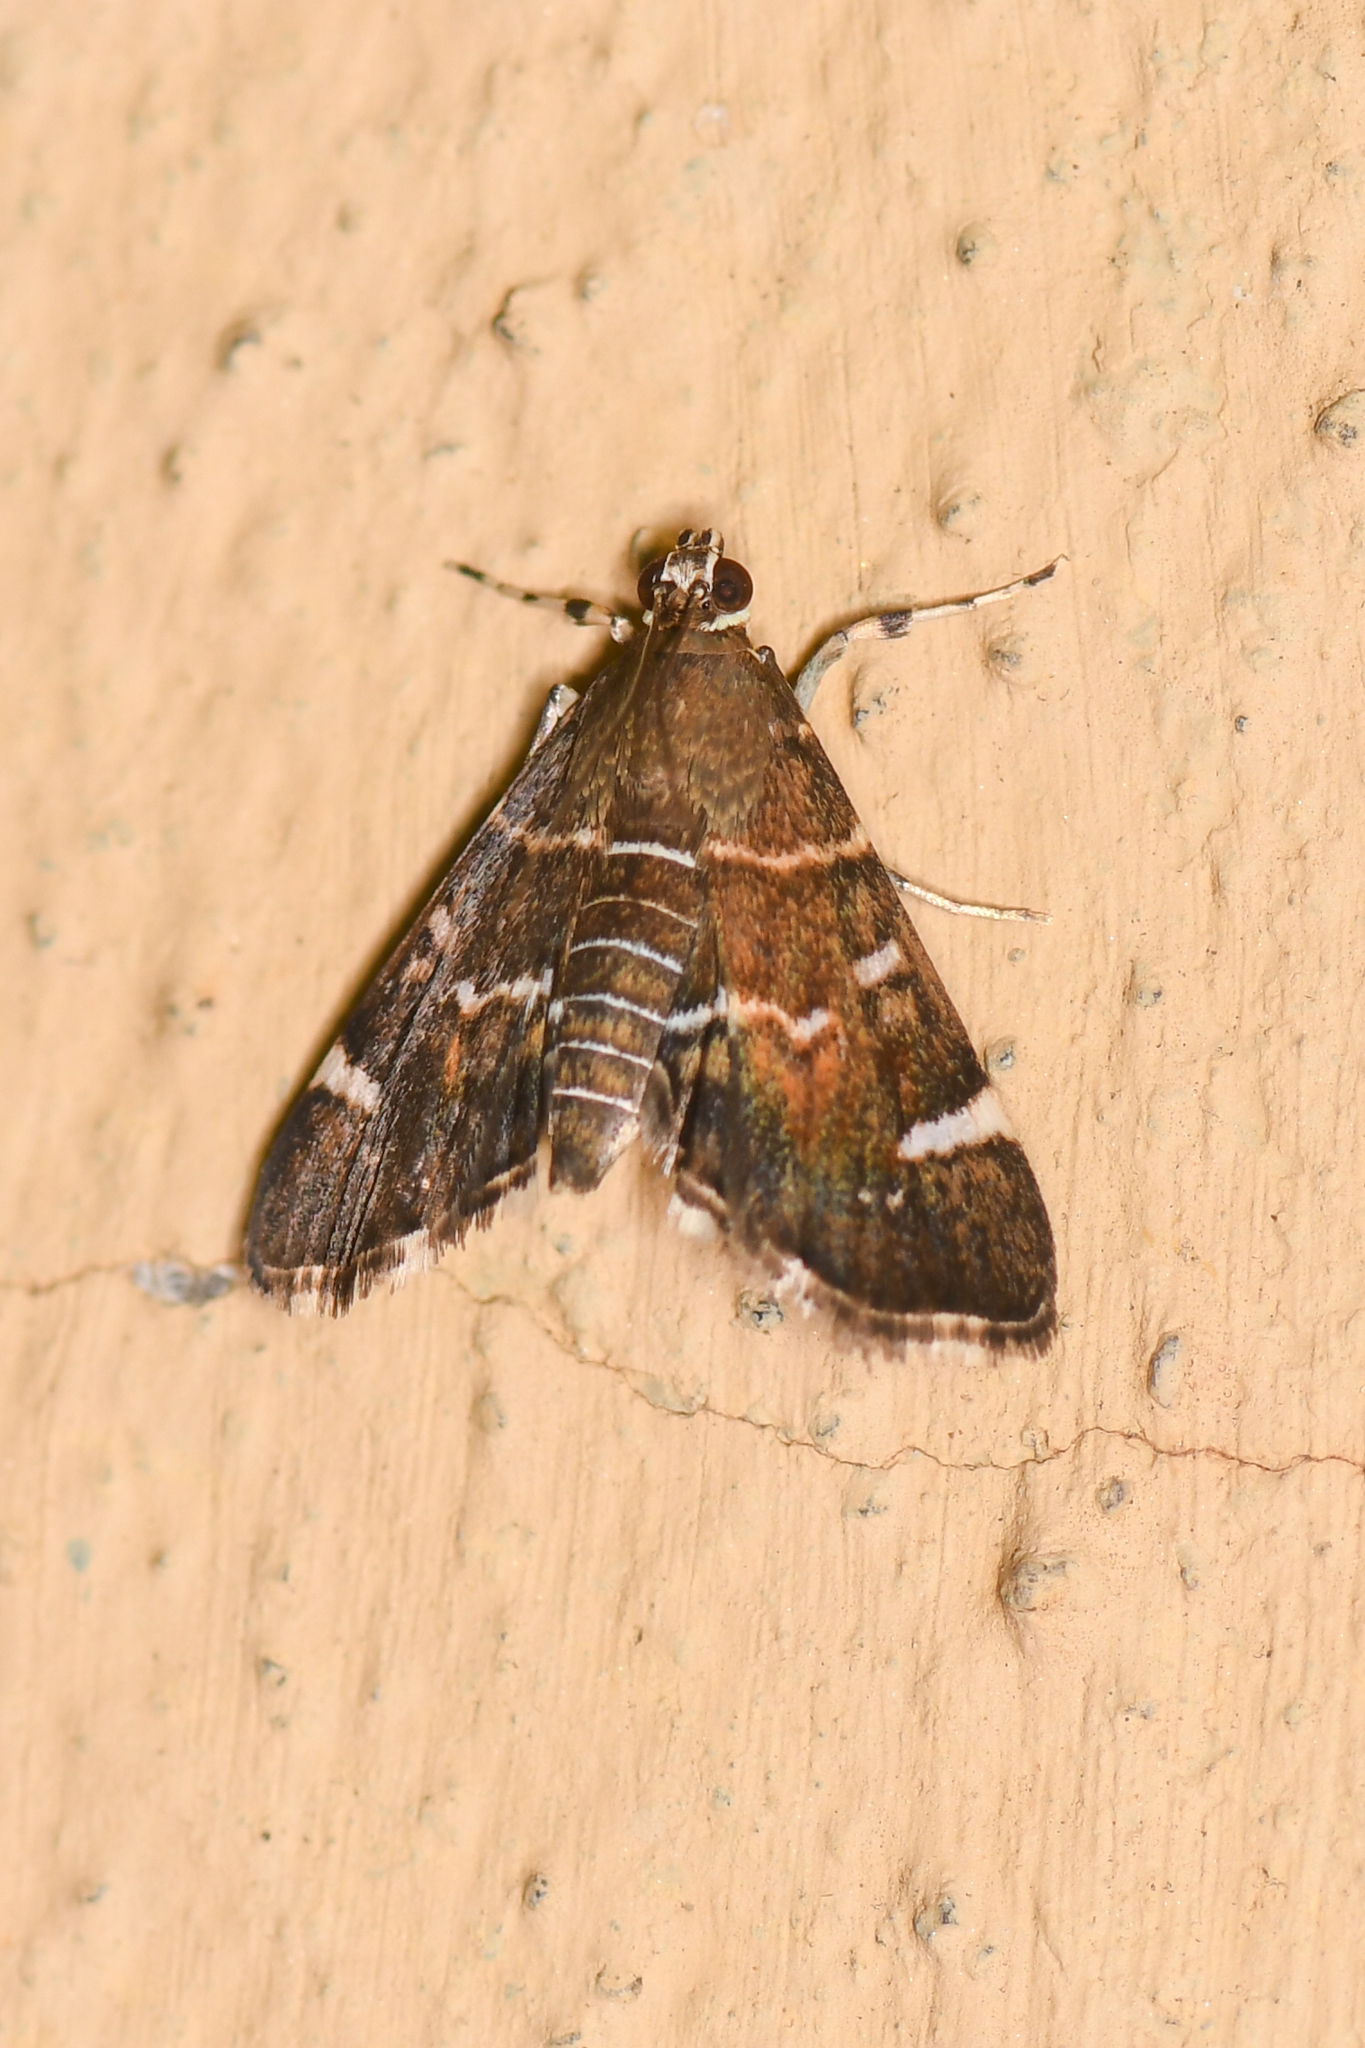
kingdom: Animalia
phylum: Arthropoda
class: Insecta
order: Lepidoptera
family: Crambidae
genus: Hymenia
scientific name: Hymenia perspectalis
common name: Spotted beet webworm
